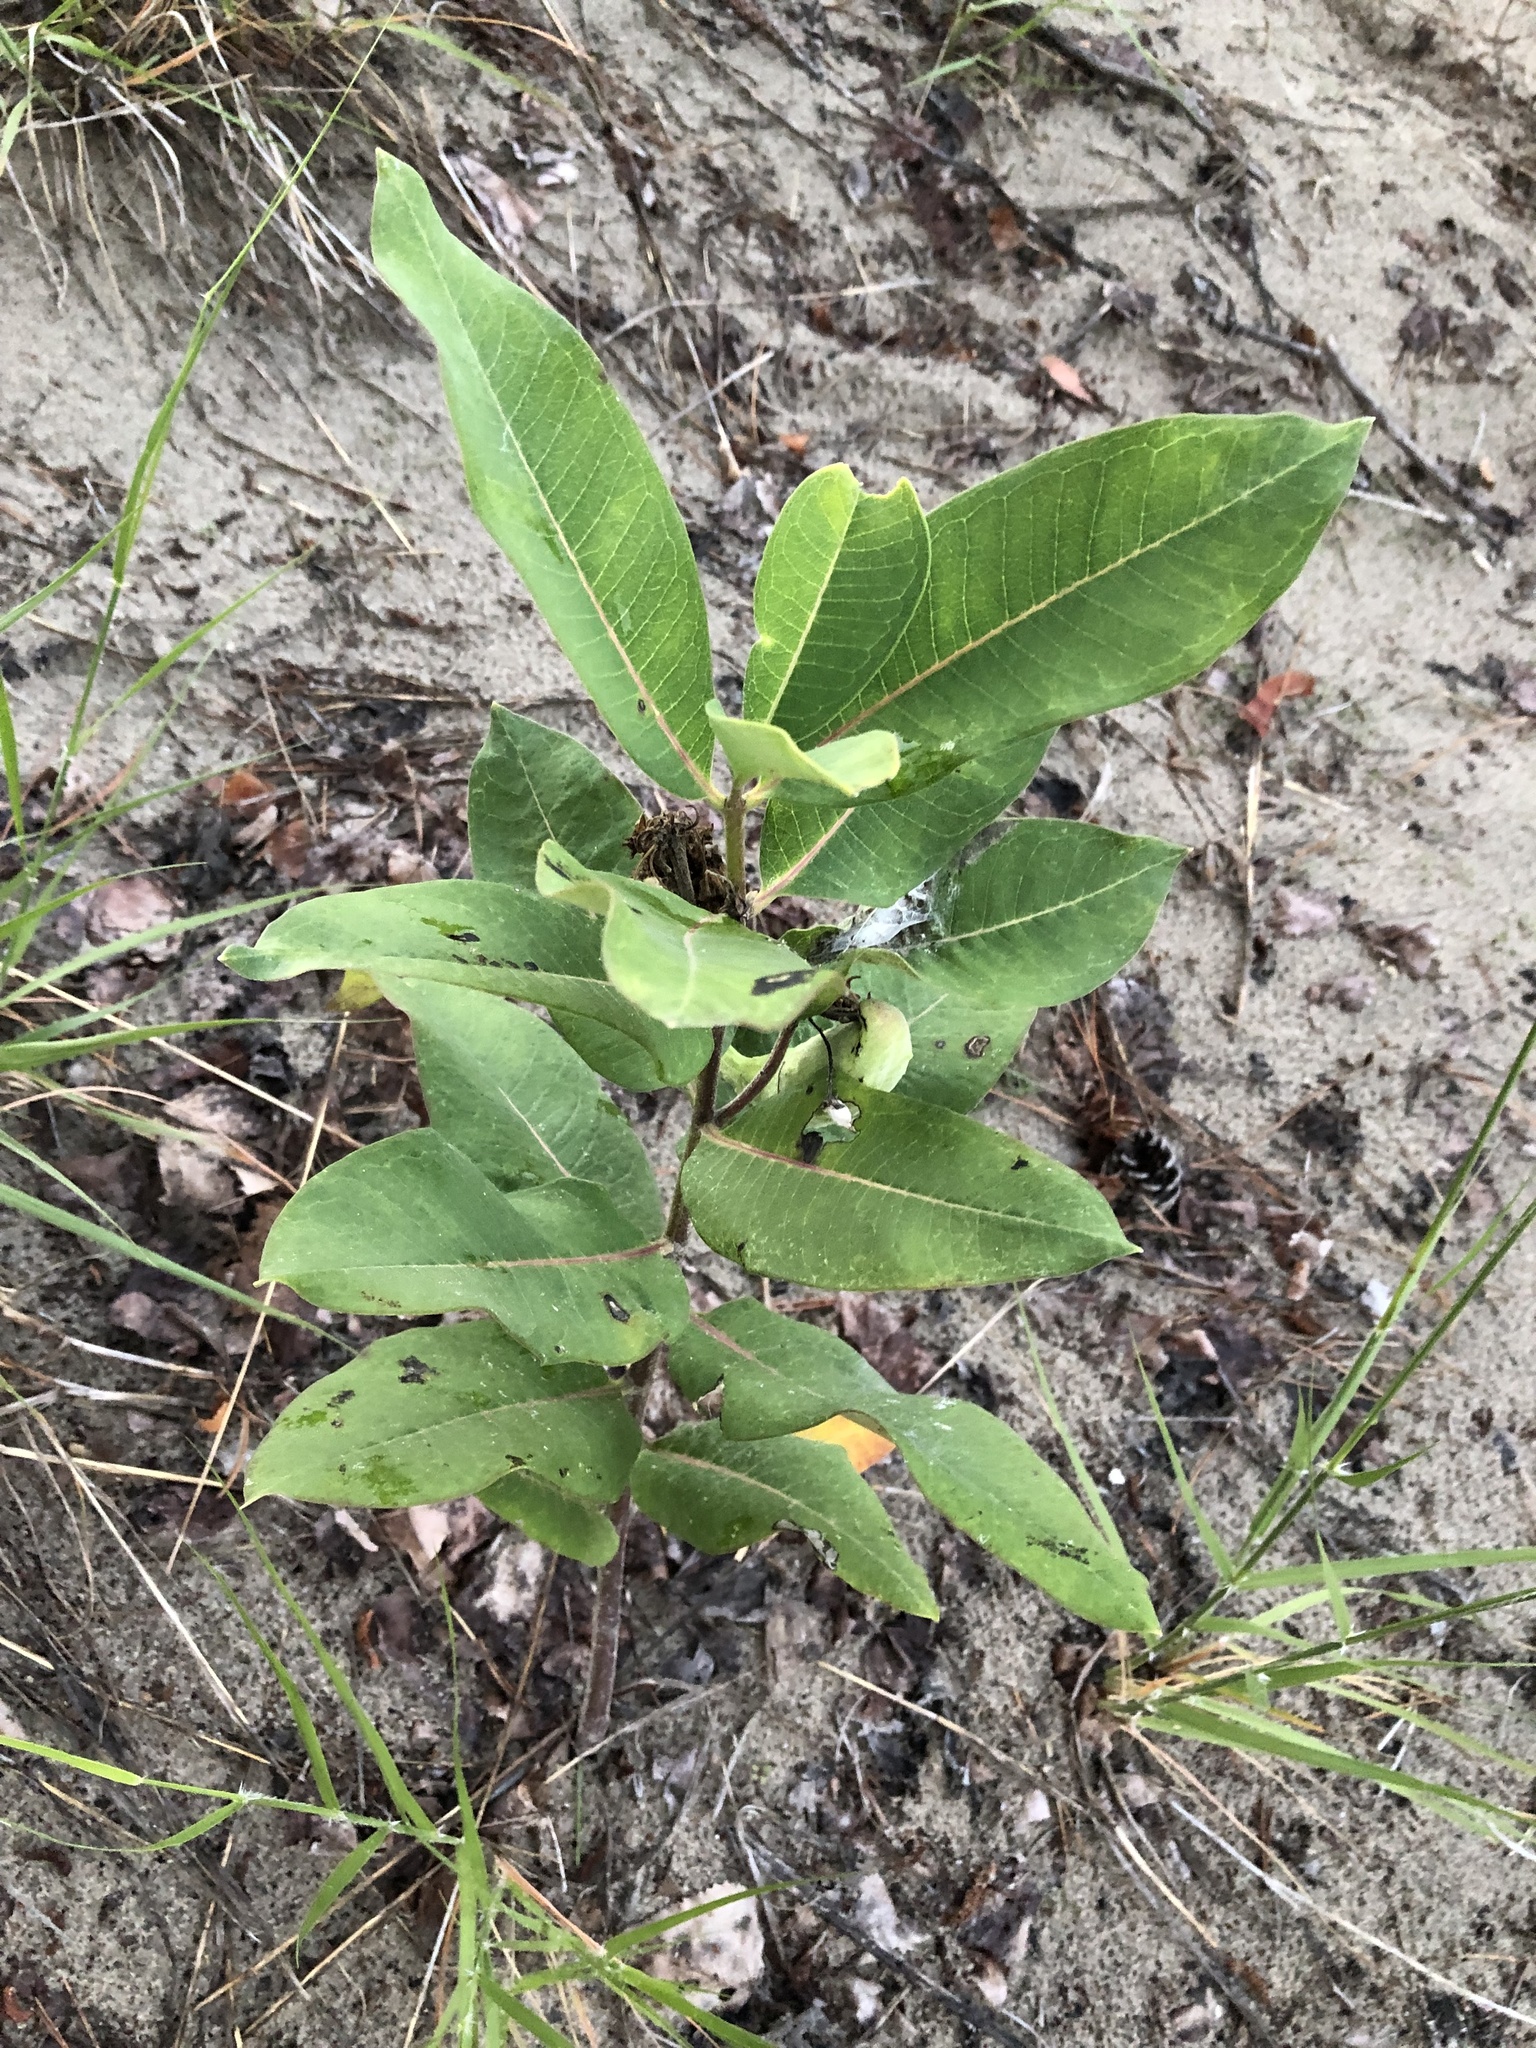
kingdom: Plantae
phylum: Tracheophyta
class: Magnoliopsida
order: Gentianales
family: Apocynaceae
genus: Asclepias
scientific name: Asclepias syriaca
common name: Common milkweed
